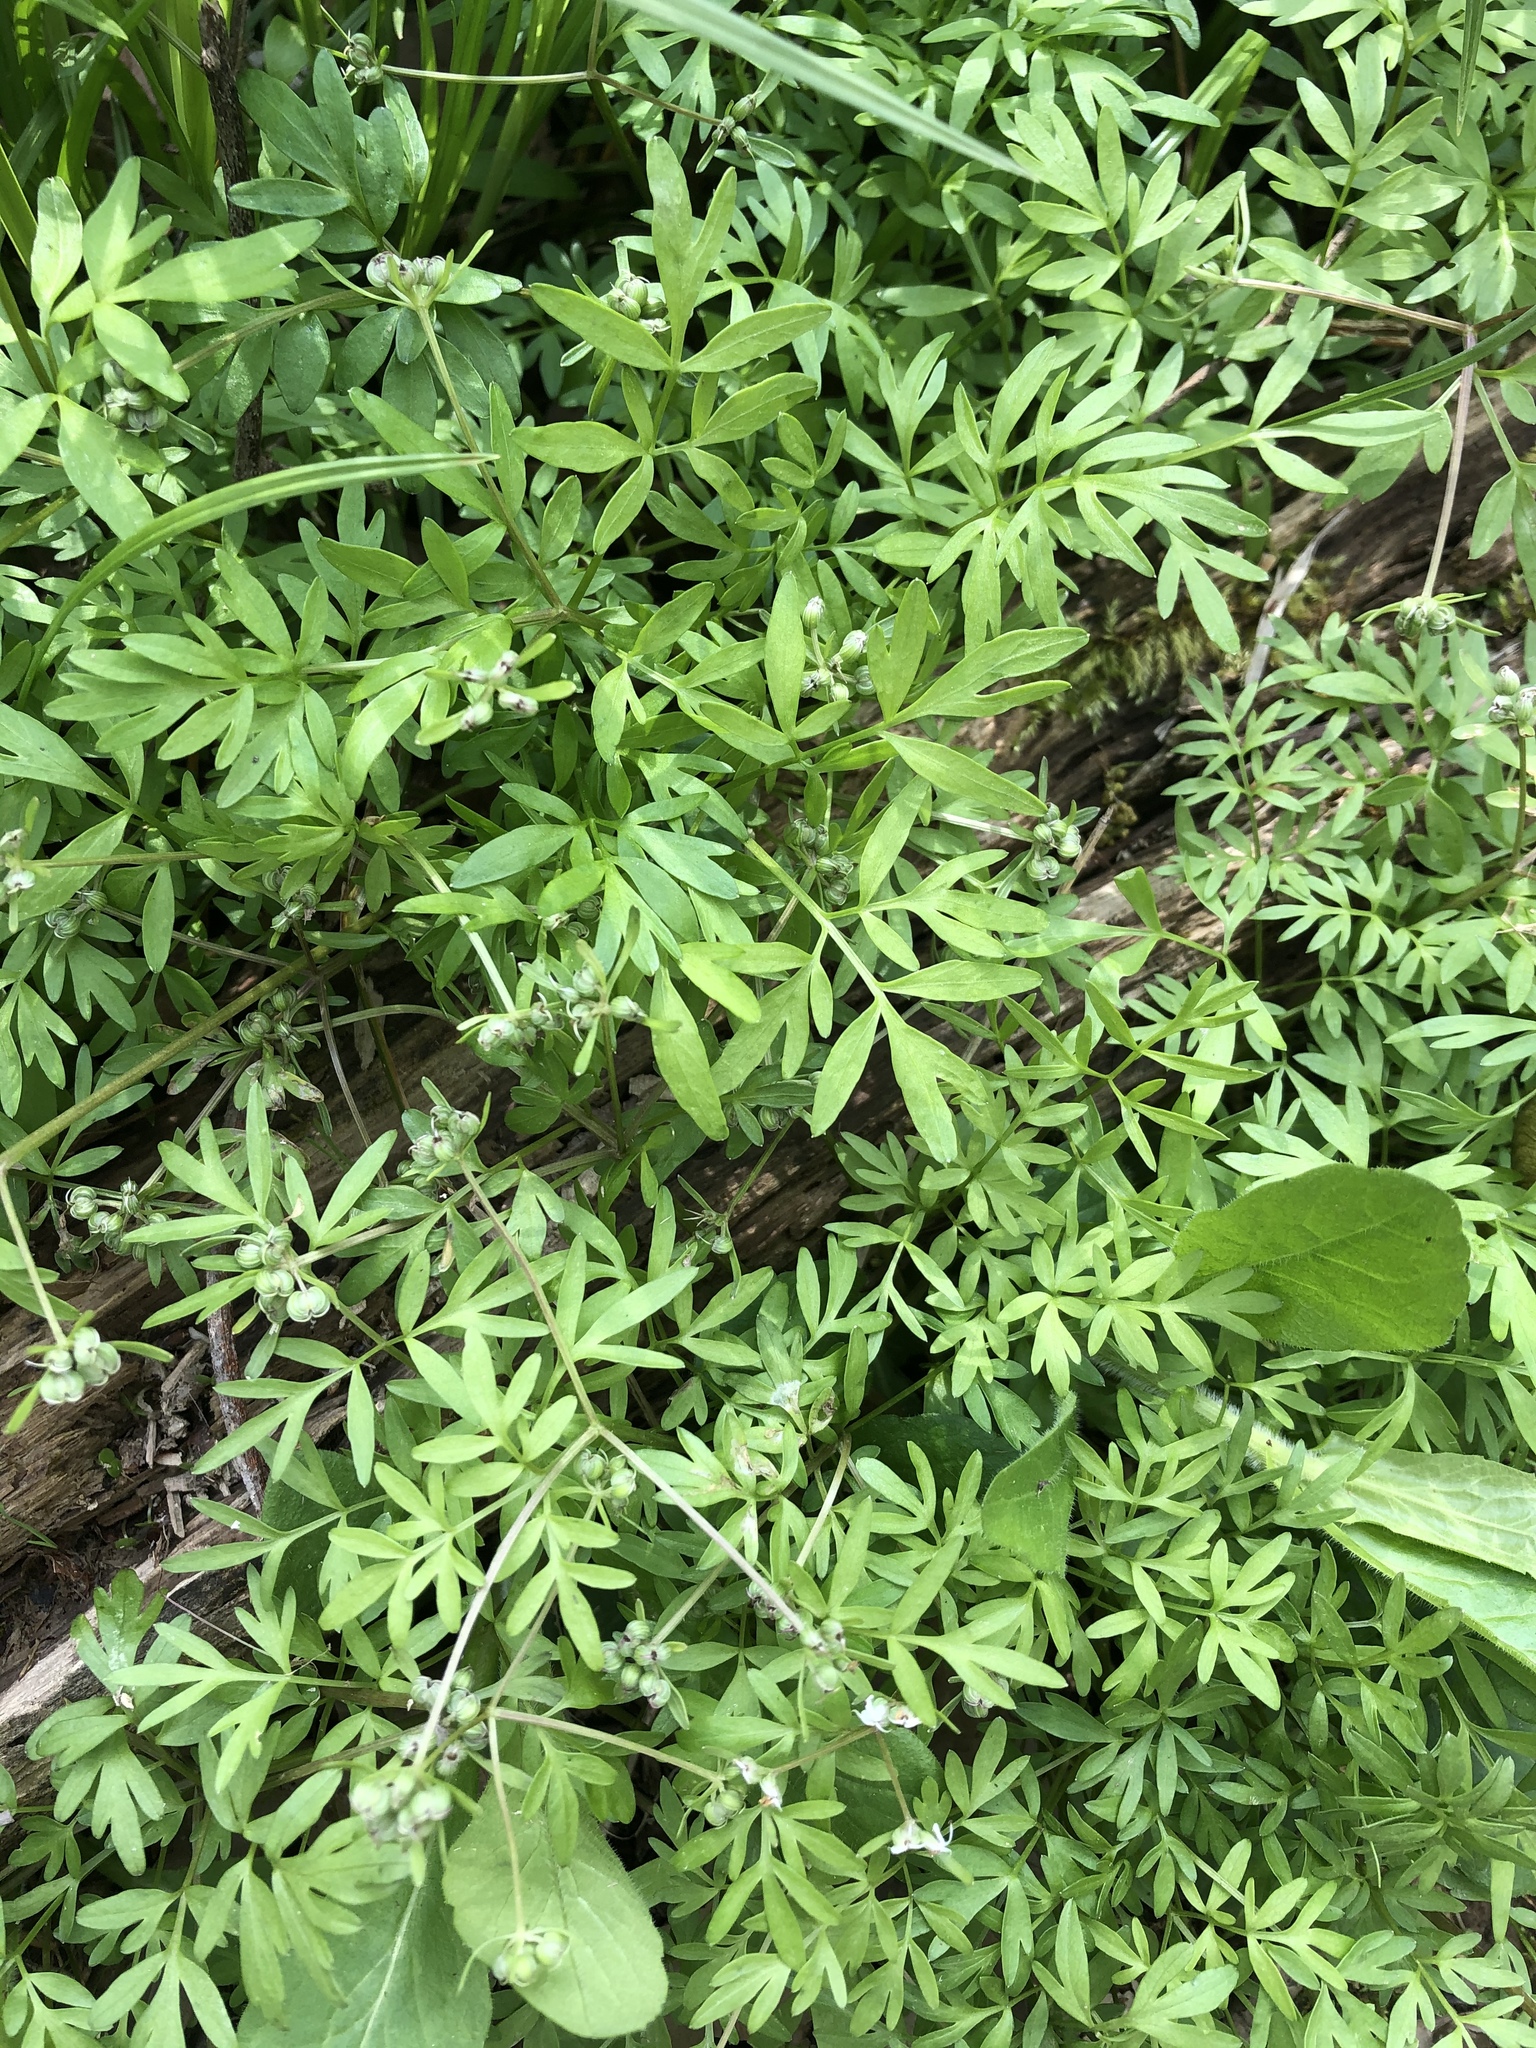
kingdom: Plantae
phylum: Tracheophyta
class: Magnoliopsida
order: Apiales
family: Apiaceae
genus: Erigenia
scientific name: Erigenia bulbosa
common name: Pepper-and-salt
